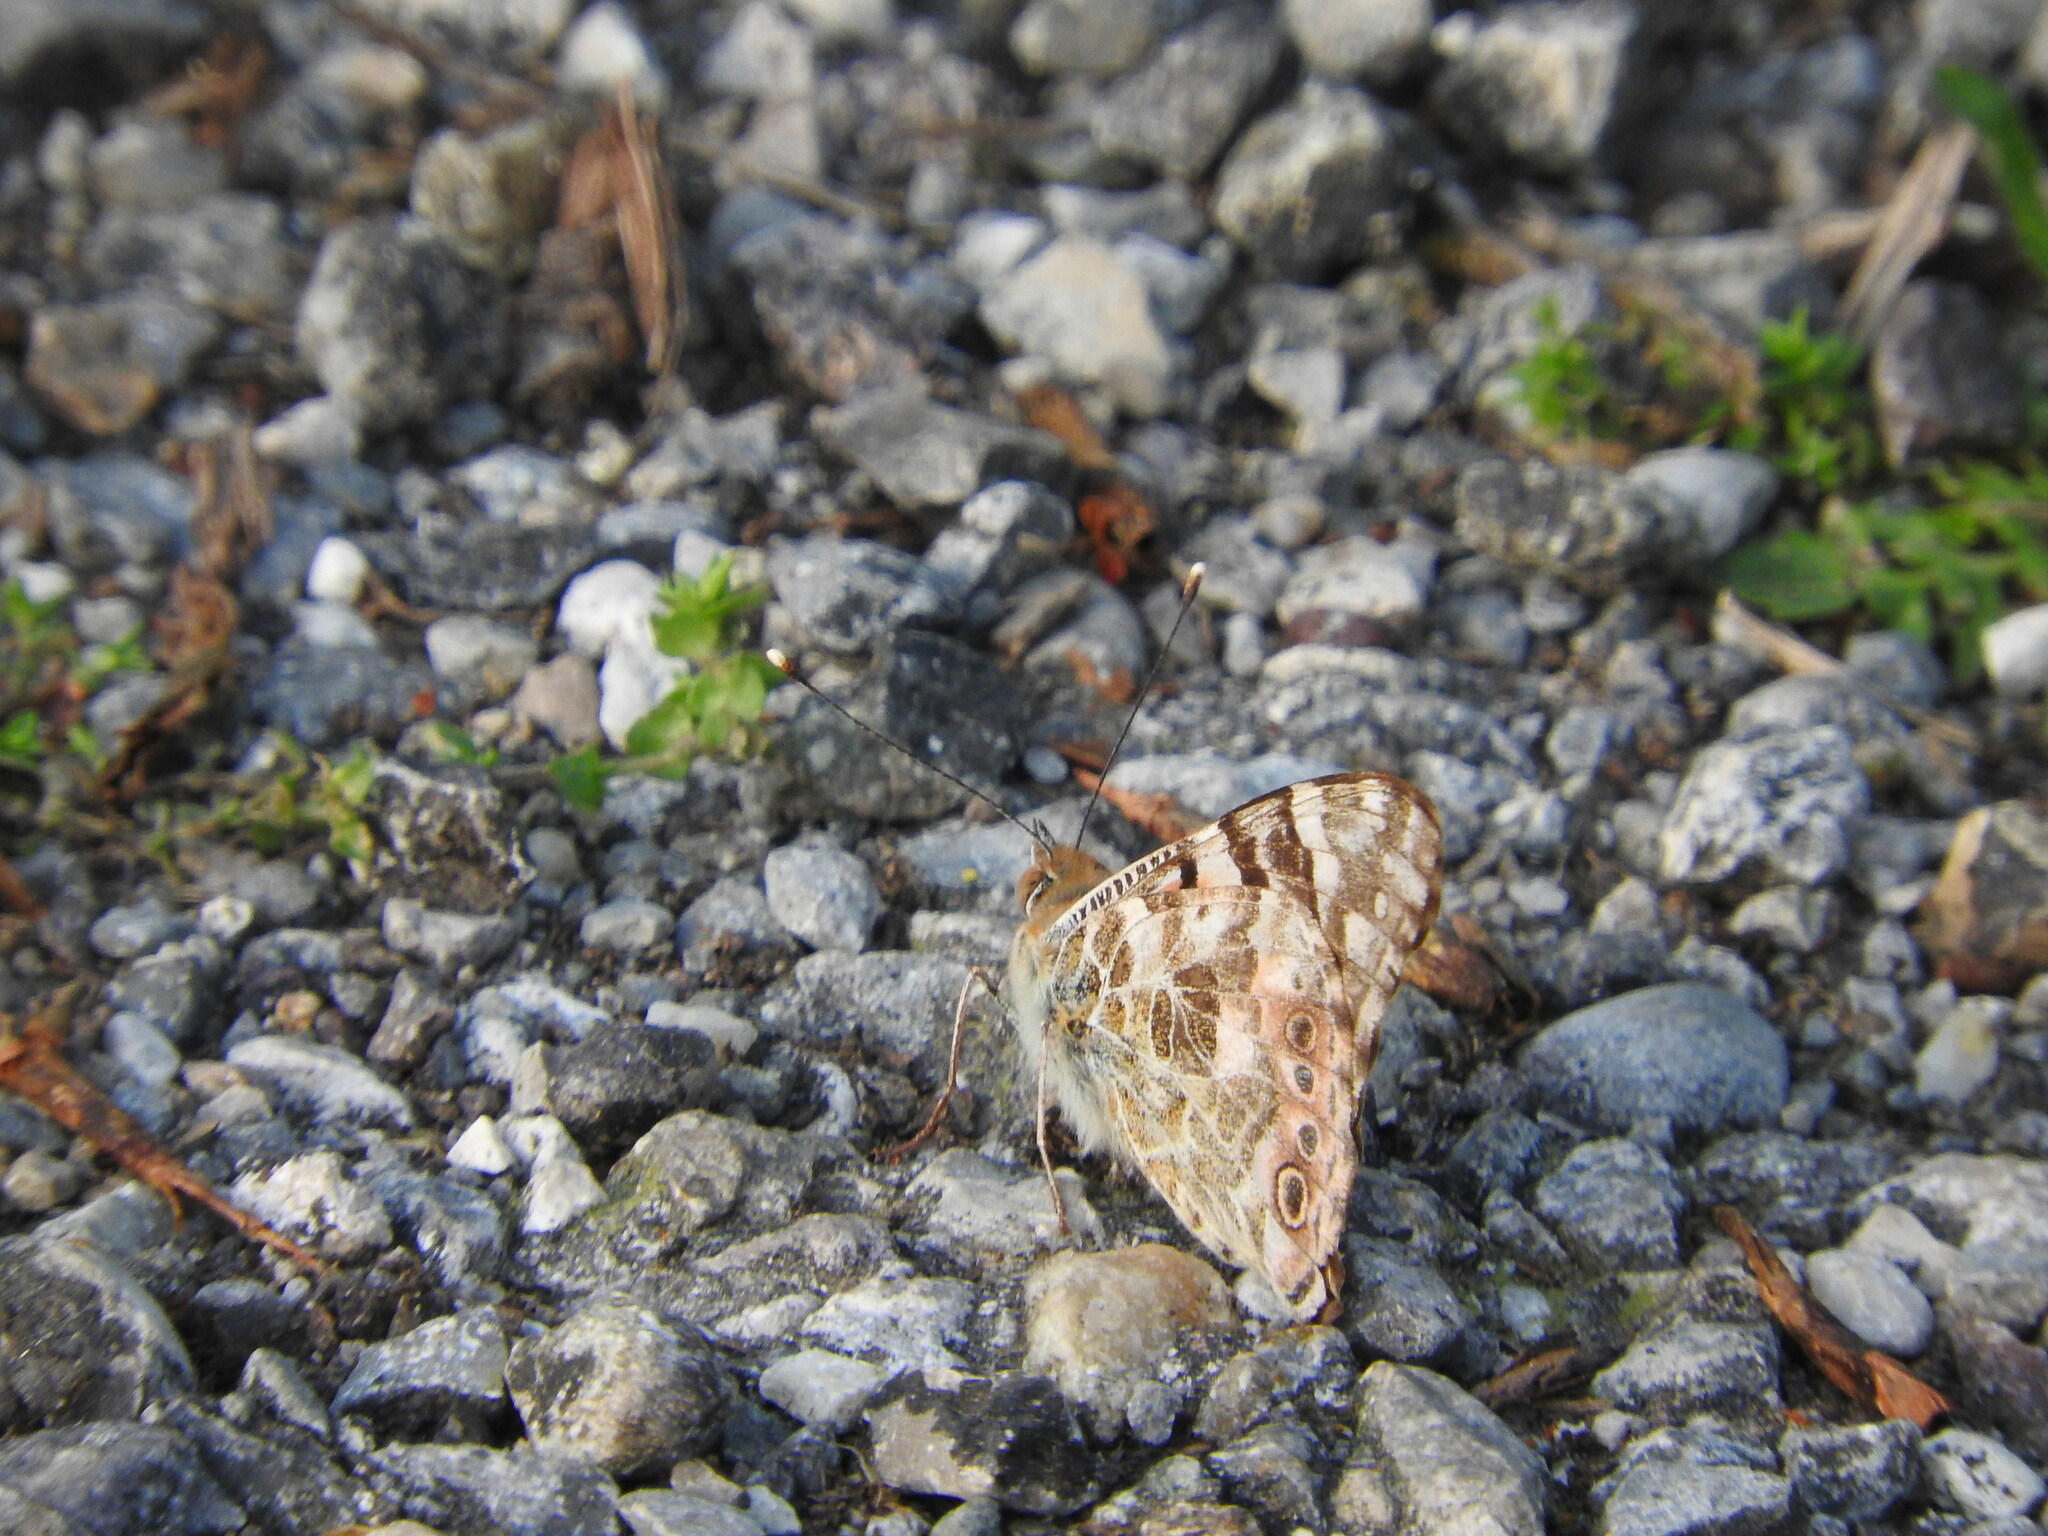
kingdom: Animalia
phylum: Arthropoda
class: Insecta
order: Lepidoptera
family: Nymphalidae
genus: Vanessa
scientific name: Vanessa cardui
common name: Painted lady
